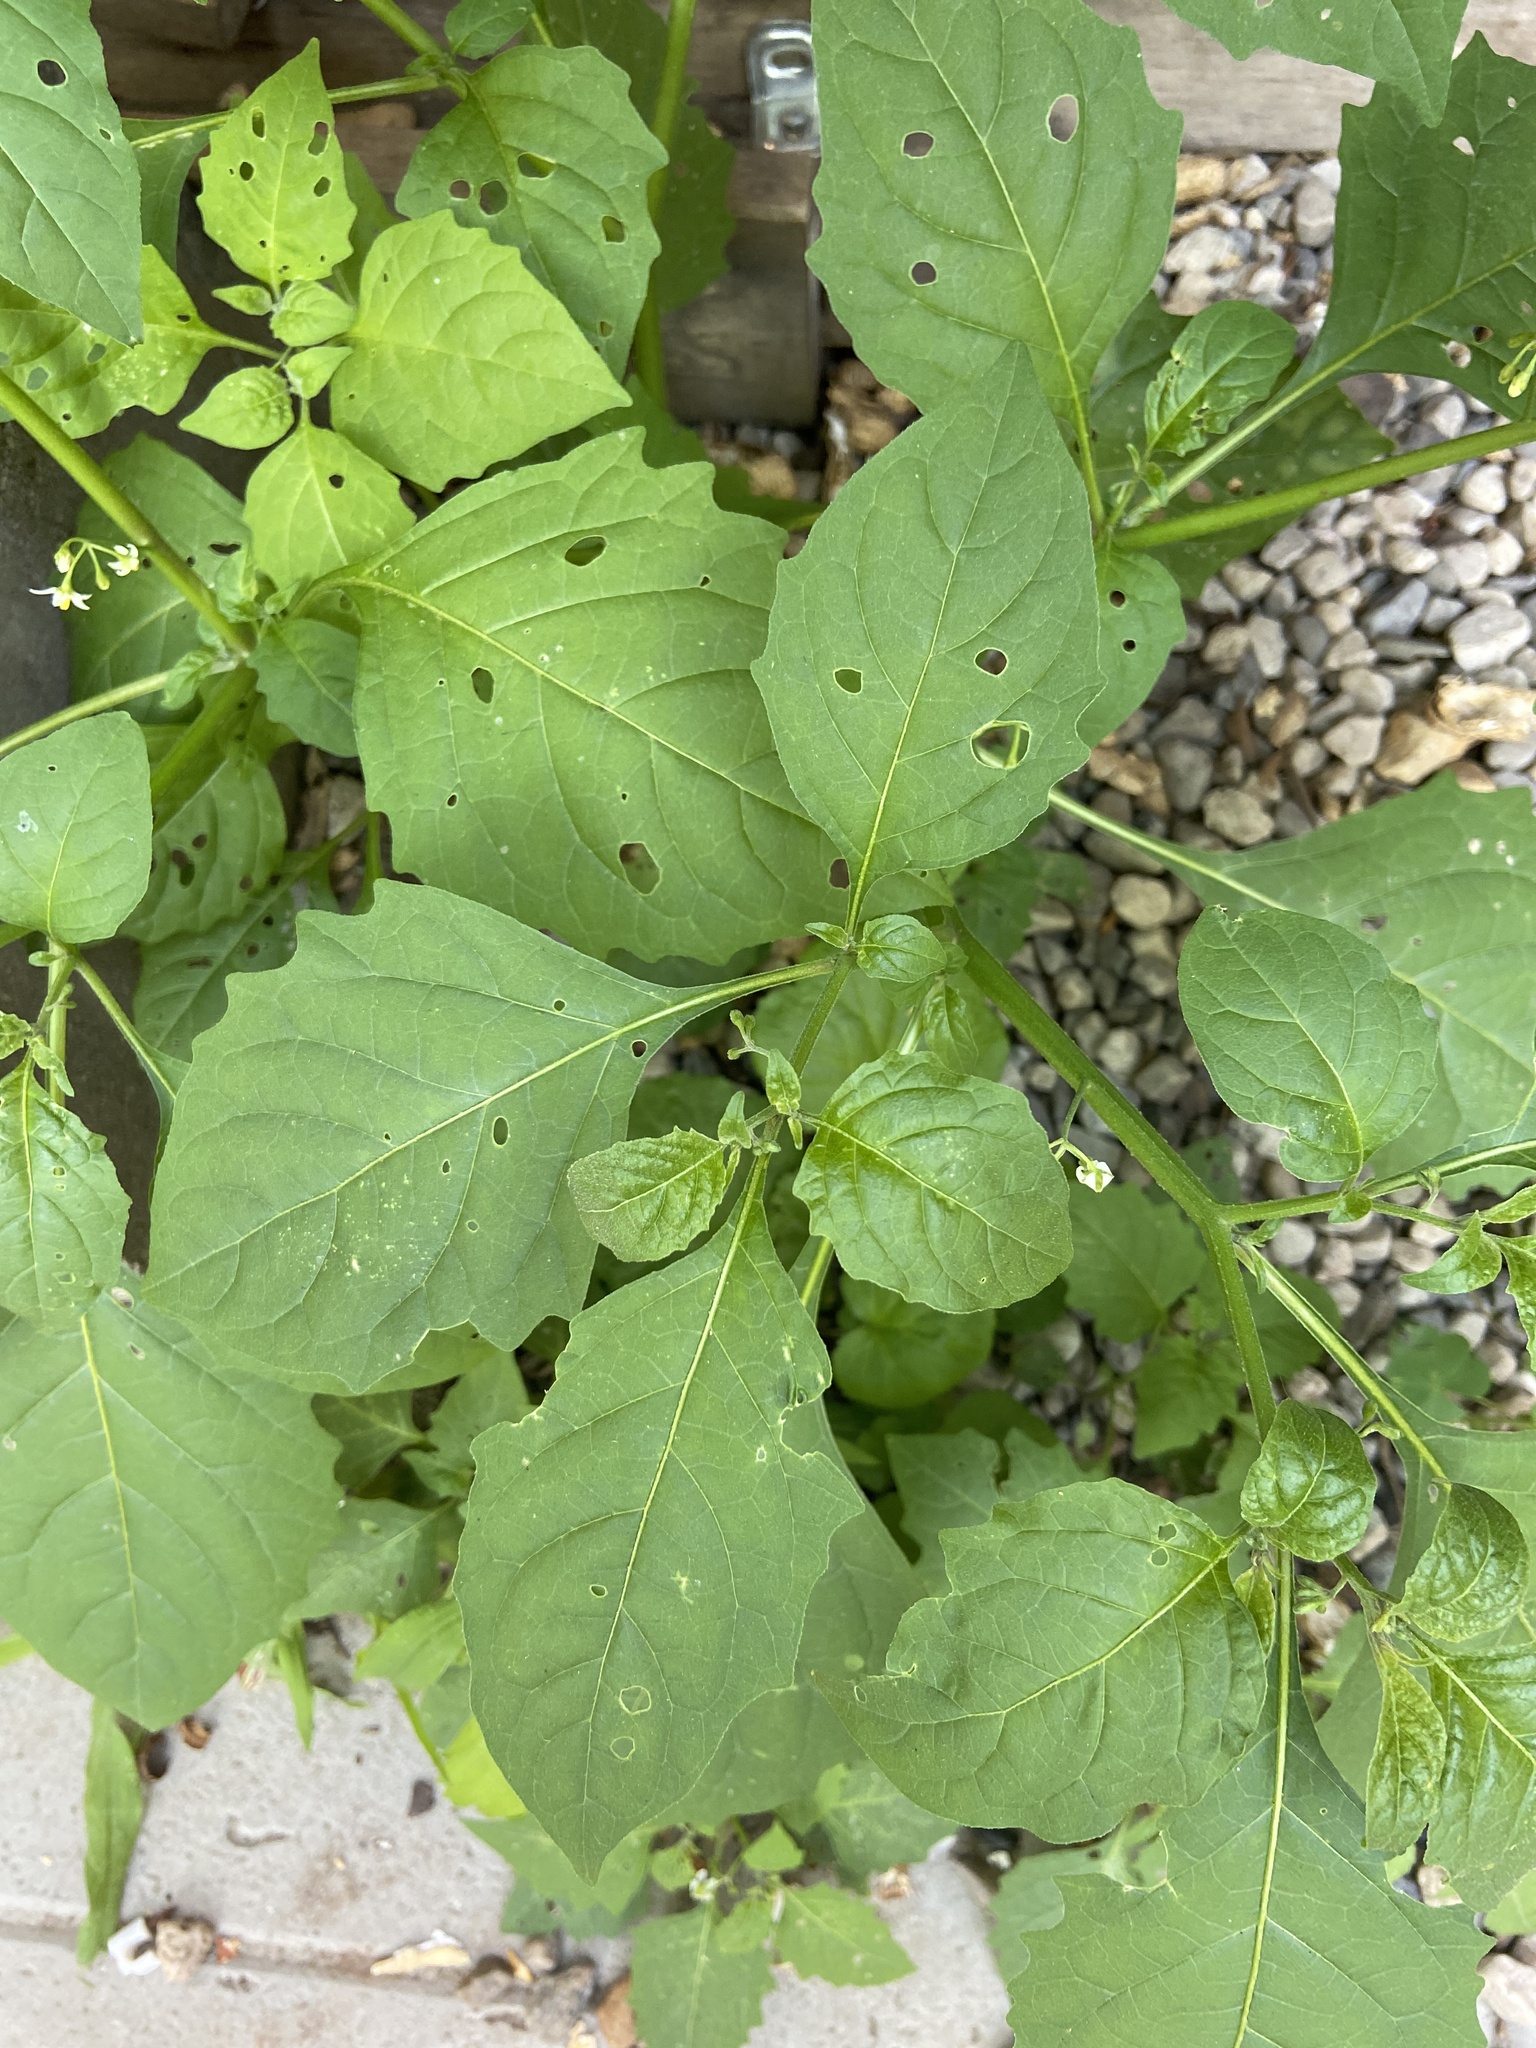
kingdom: Plantae
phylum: Tracheophyta
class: Magnoliopsida
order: Solanales
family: Solanaceae
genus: Solanum
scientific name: Solanum emulans
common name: Eastern black nightshade
